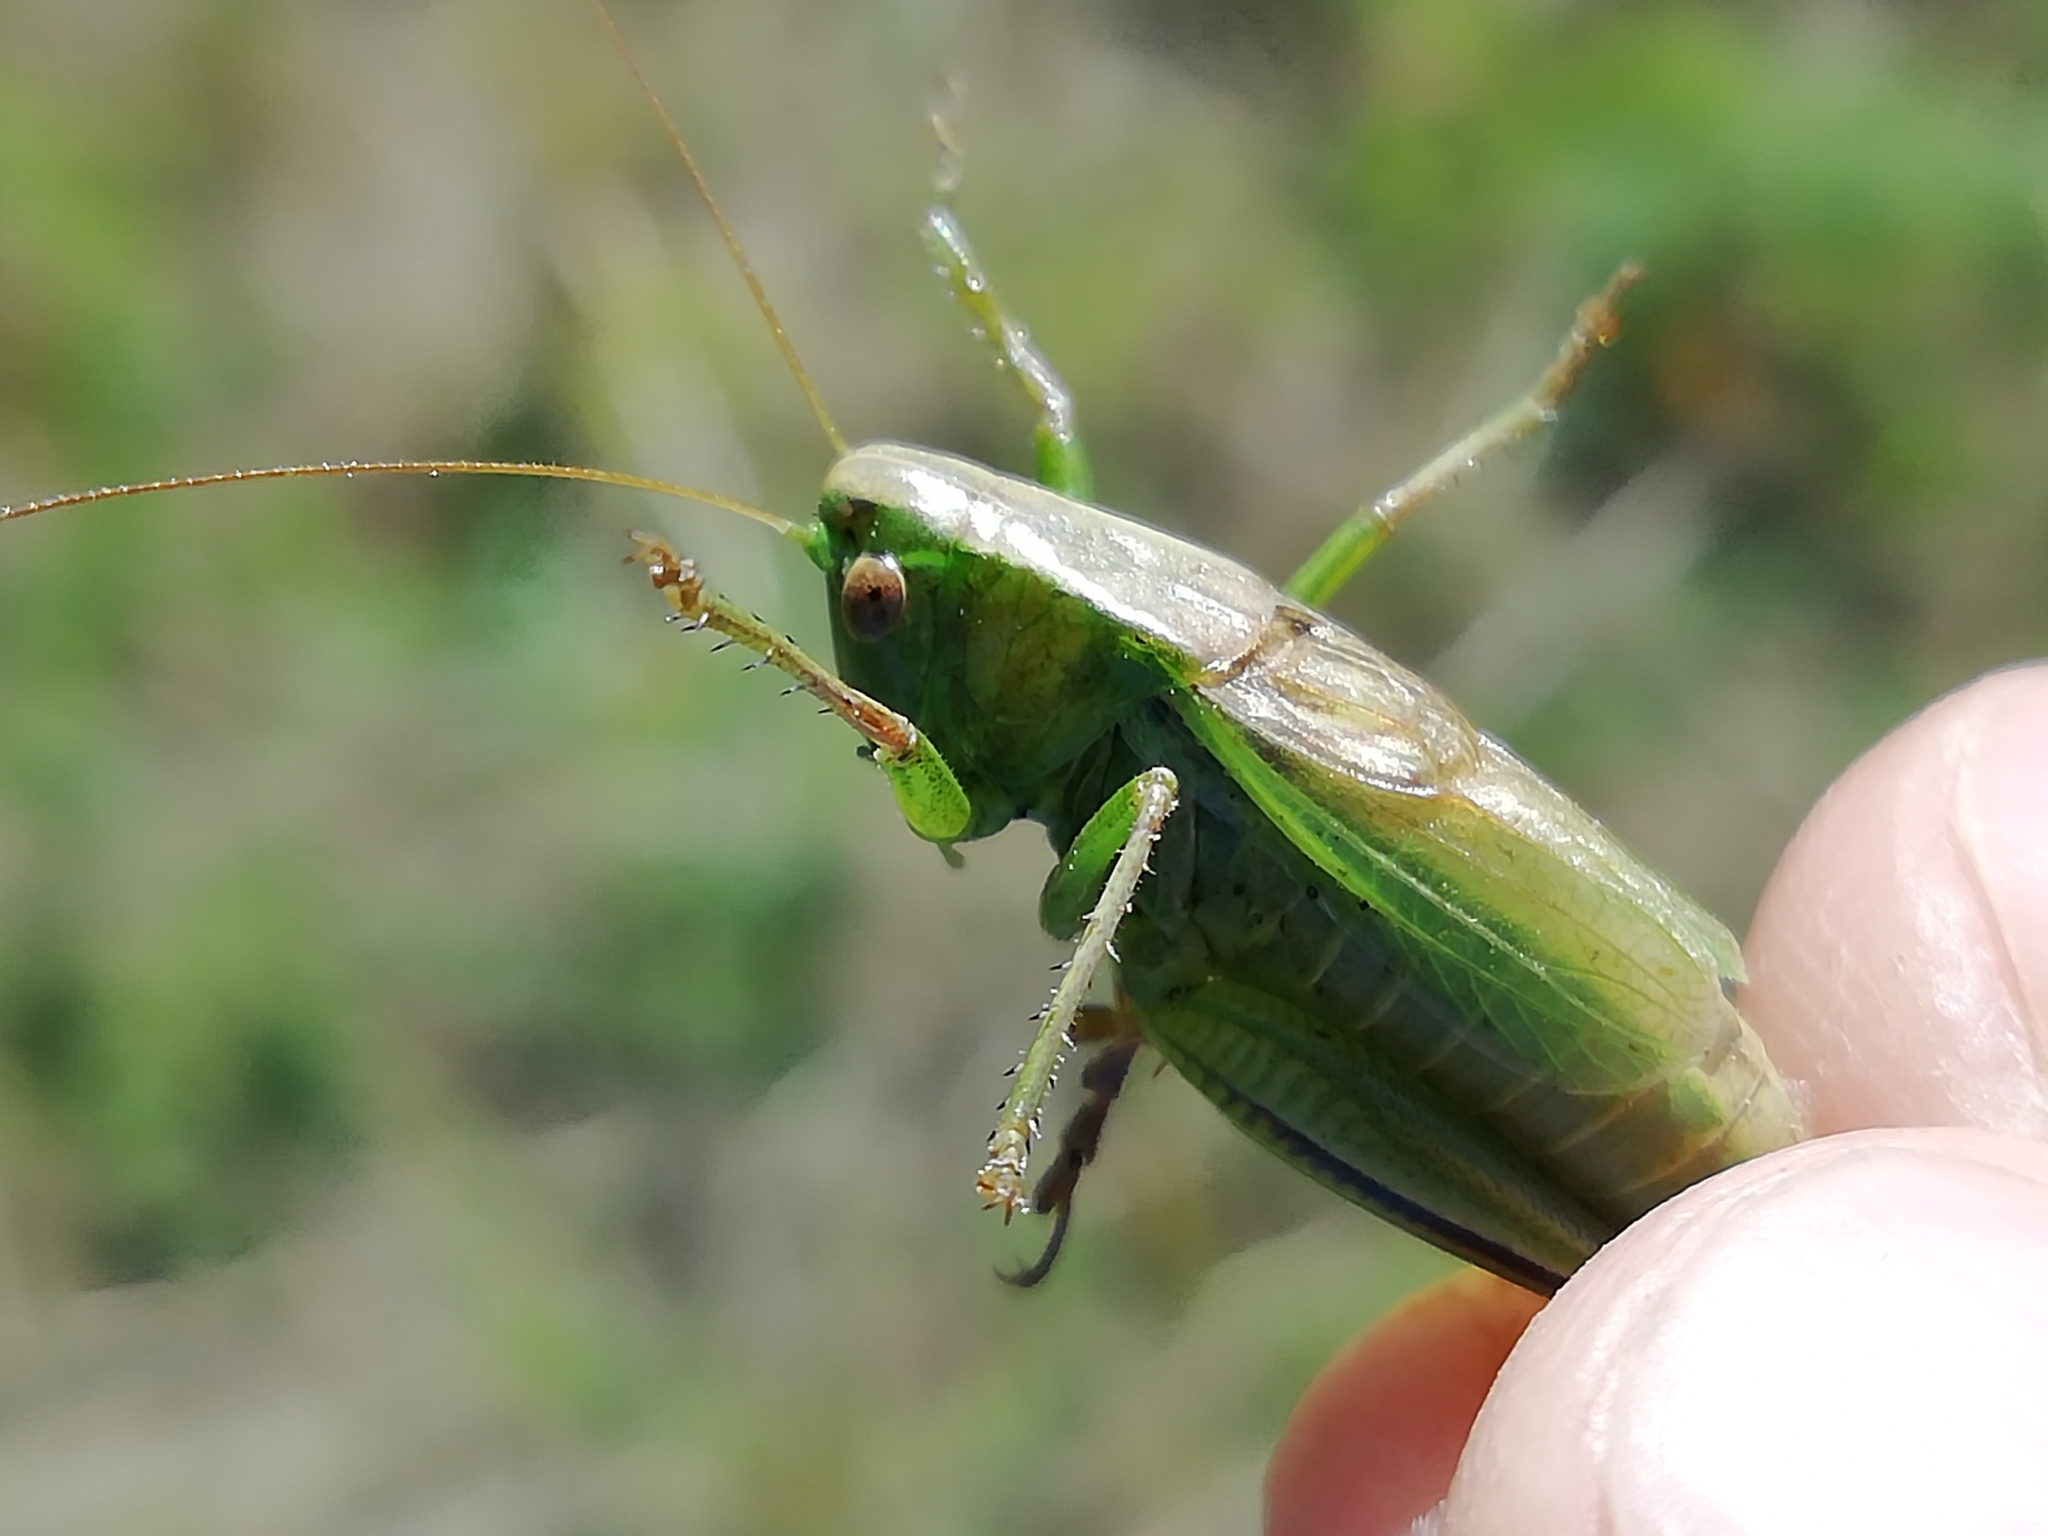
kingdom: Animalia
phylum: Arthropoda
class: Insecta
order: Orthoptera
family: Tettigoniidae
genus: Bicolorana
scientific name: Bicolorana bicolor
